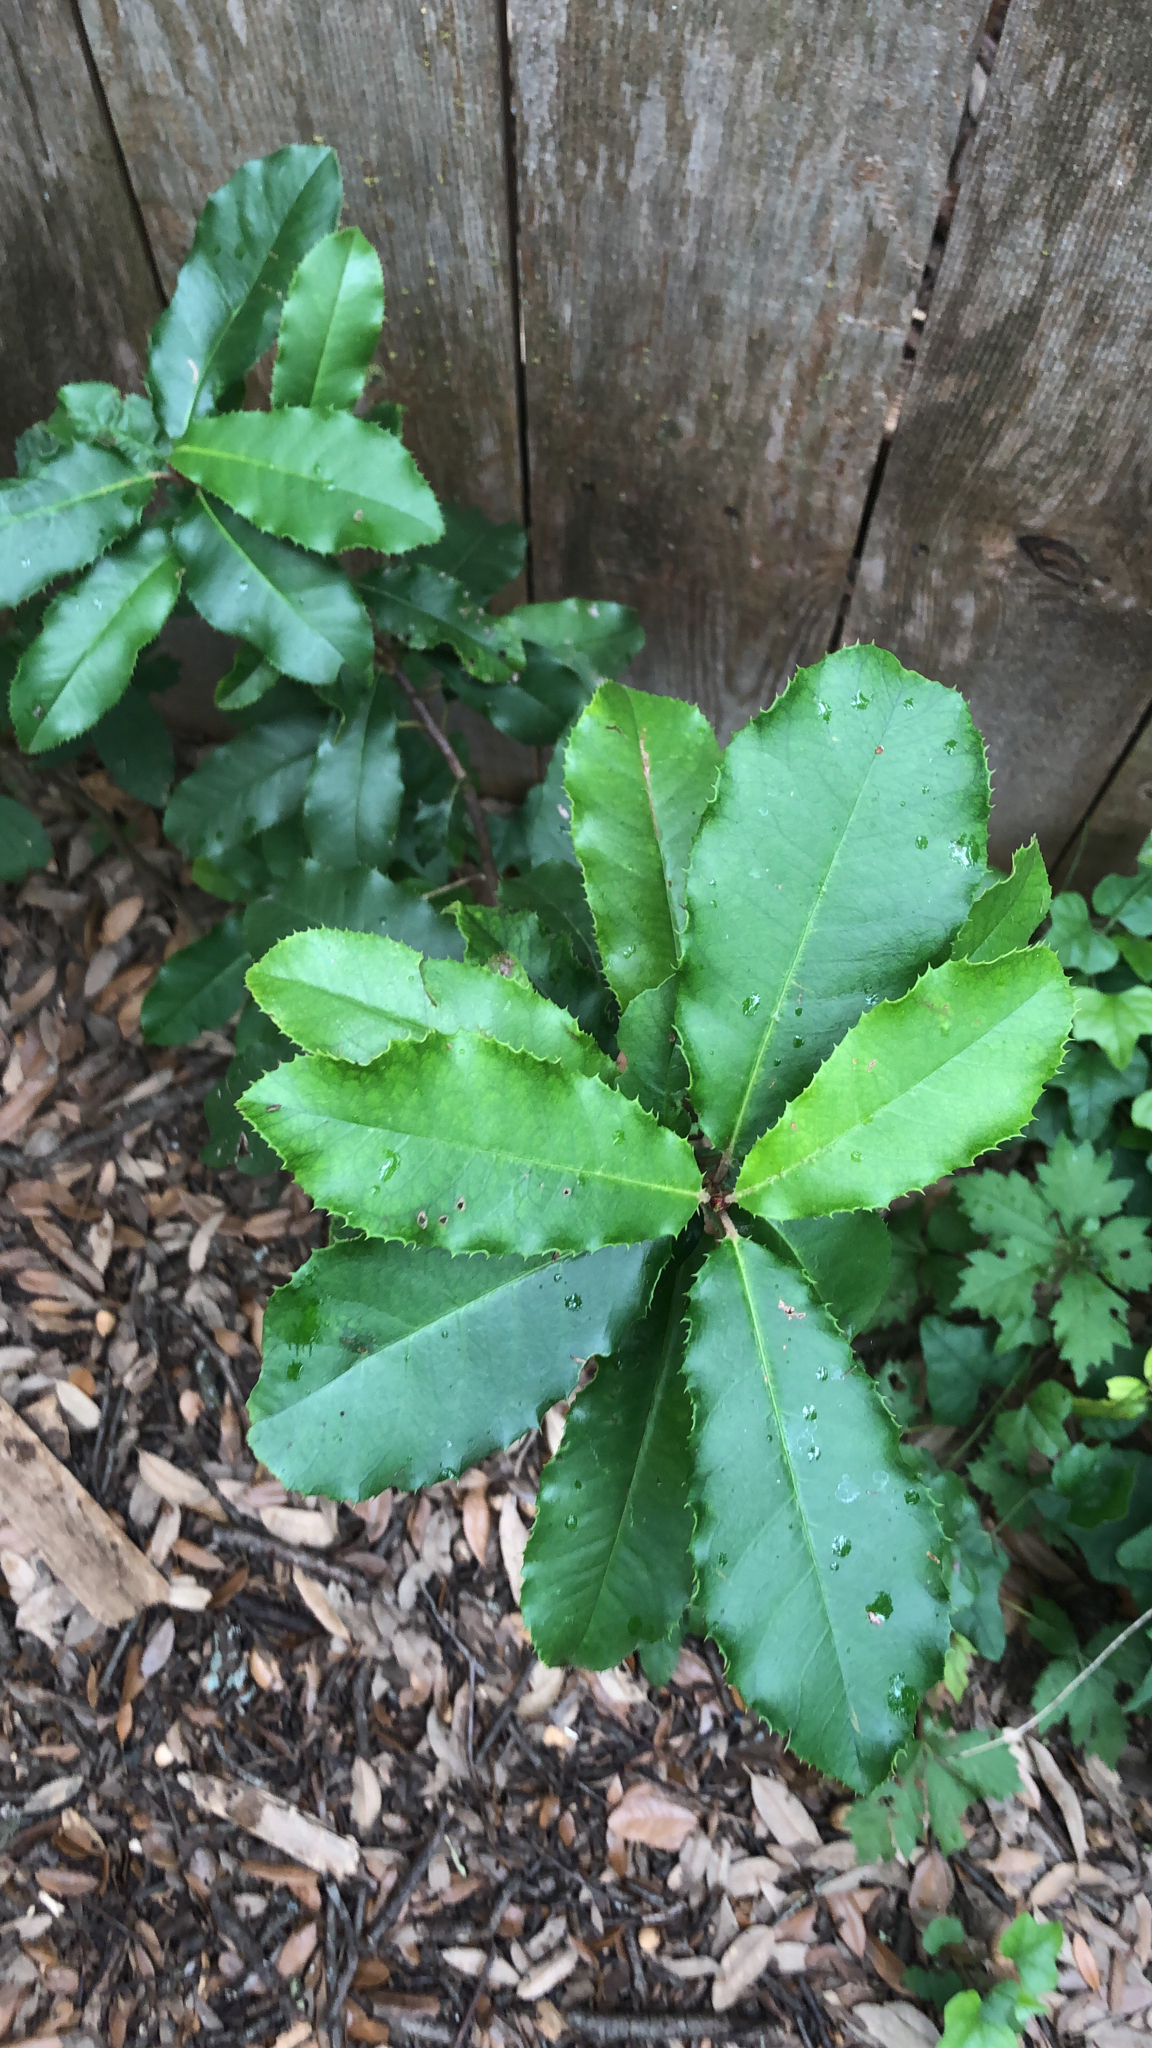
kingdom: Plantae
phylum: Tracheophyta
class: Magnoliopsida
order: Rosales
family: Rosaceae
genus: Photinia
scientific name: Photinia serratifolia
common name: Taiwanese photinia
